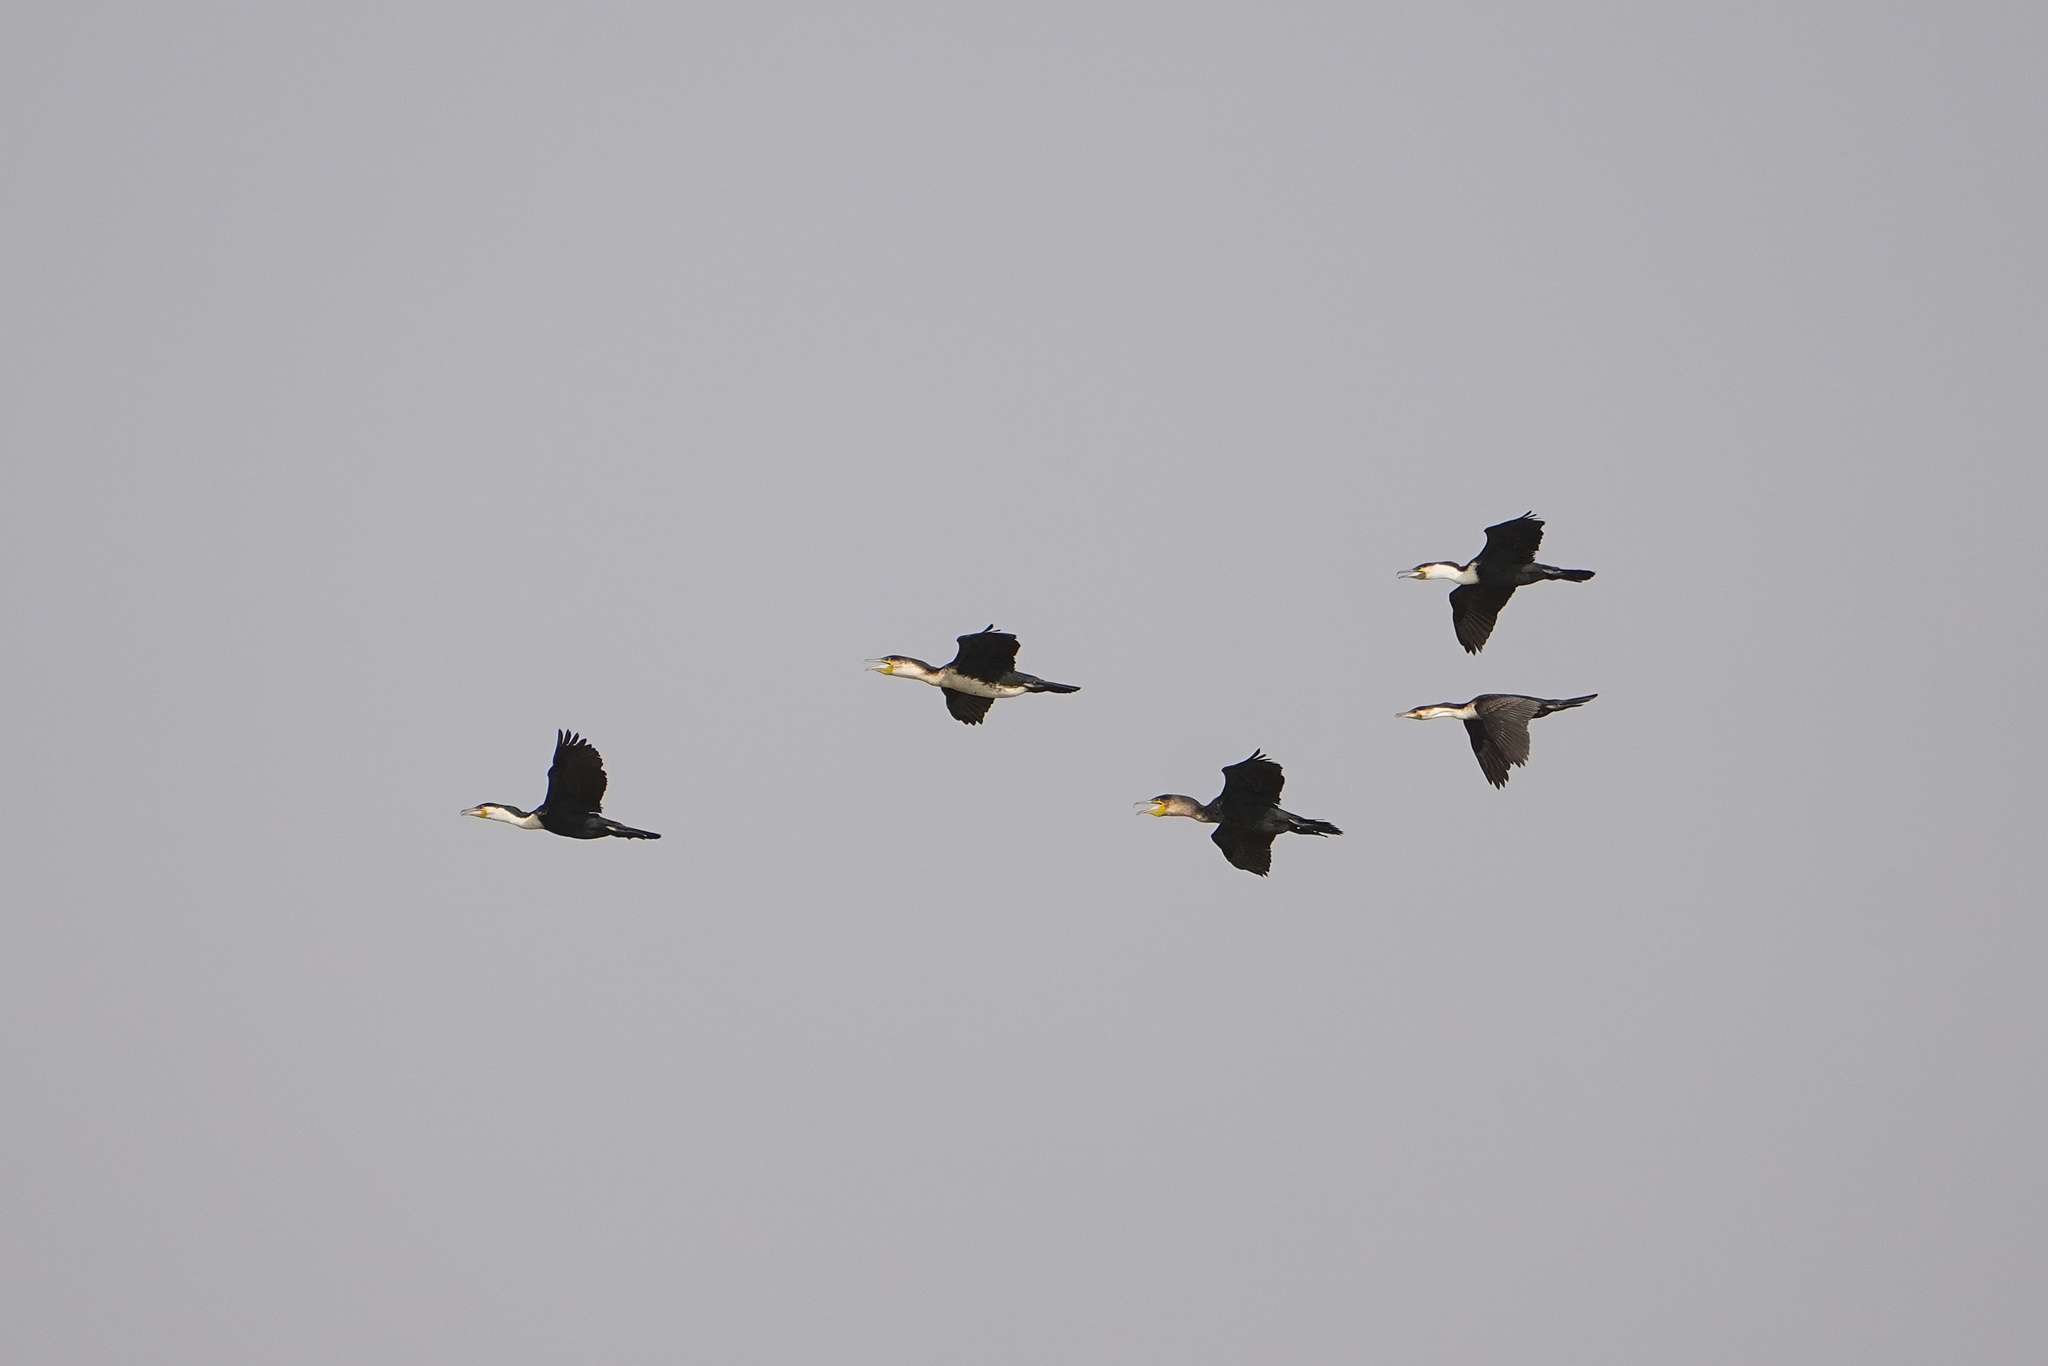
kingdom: Animalia
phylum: Chordata
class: Aves
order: Suliformes
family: Phalacrocoracidae
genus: Phalacrocorax
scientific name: Phalacrocorax carbo
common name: Great cormorant
